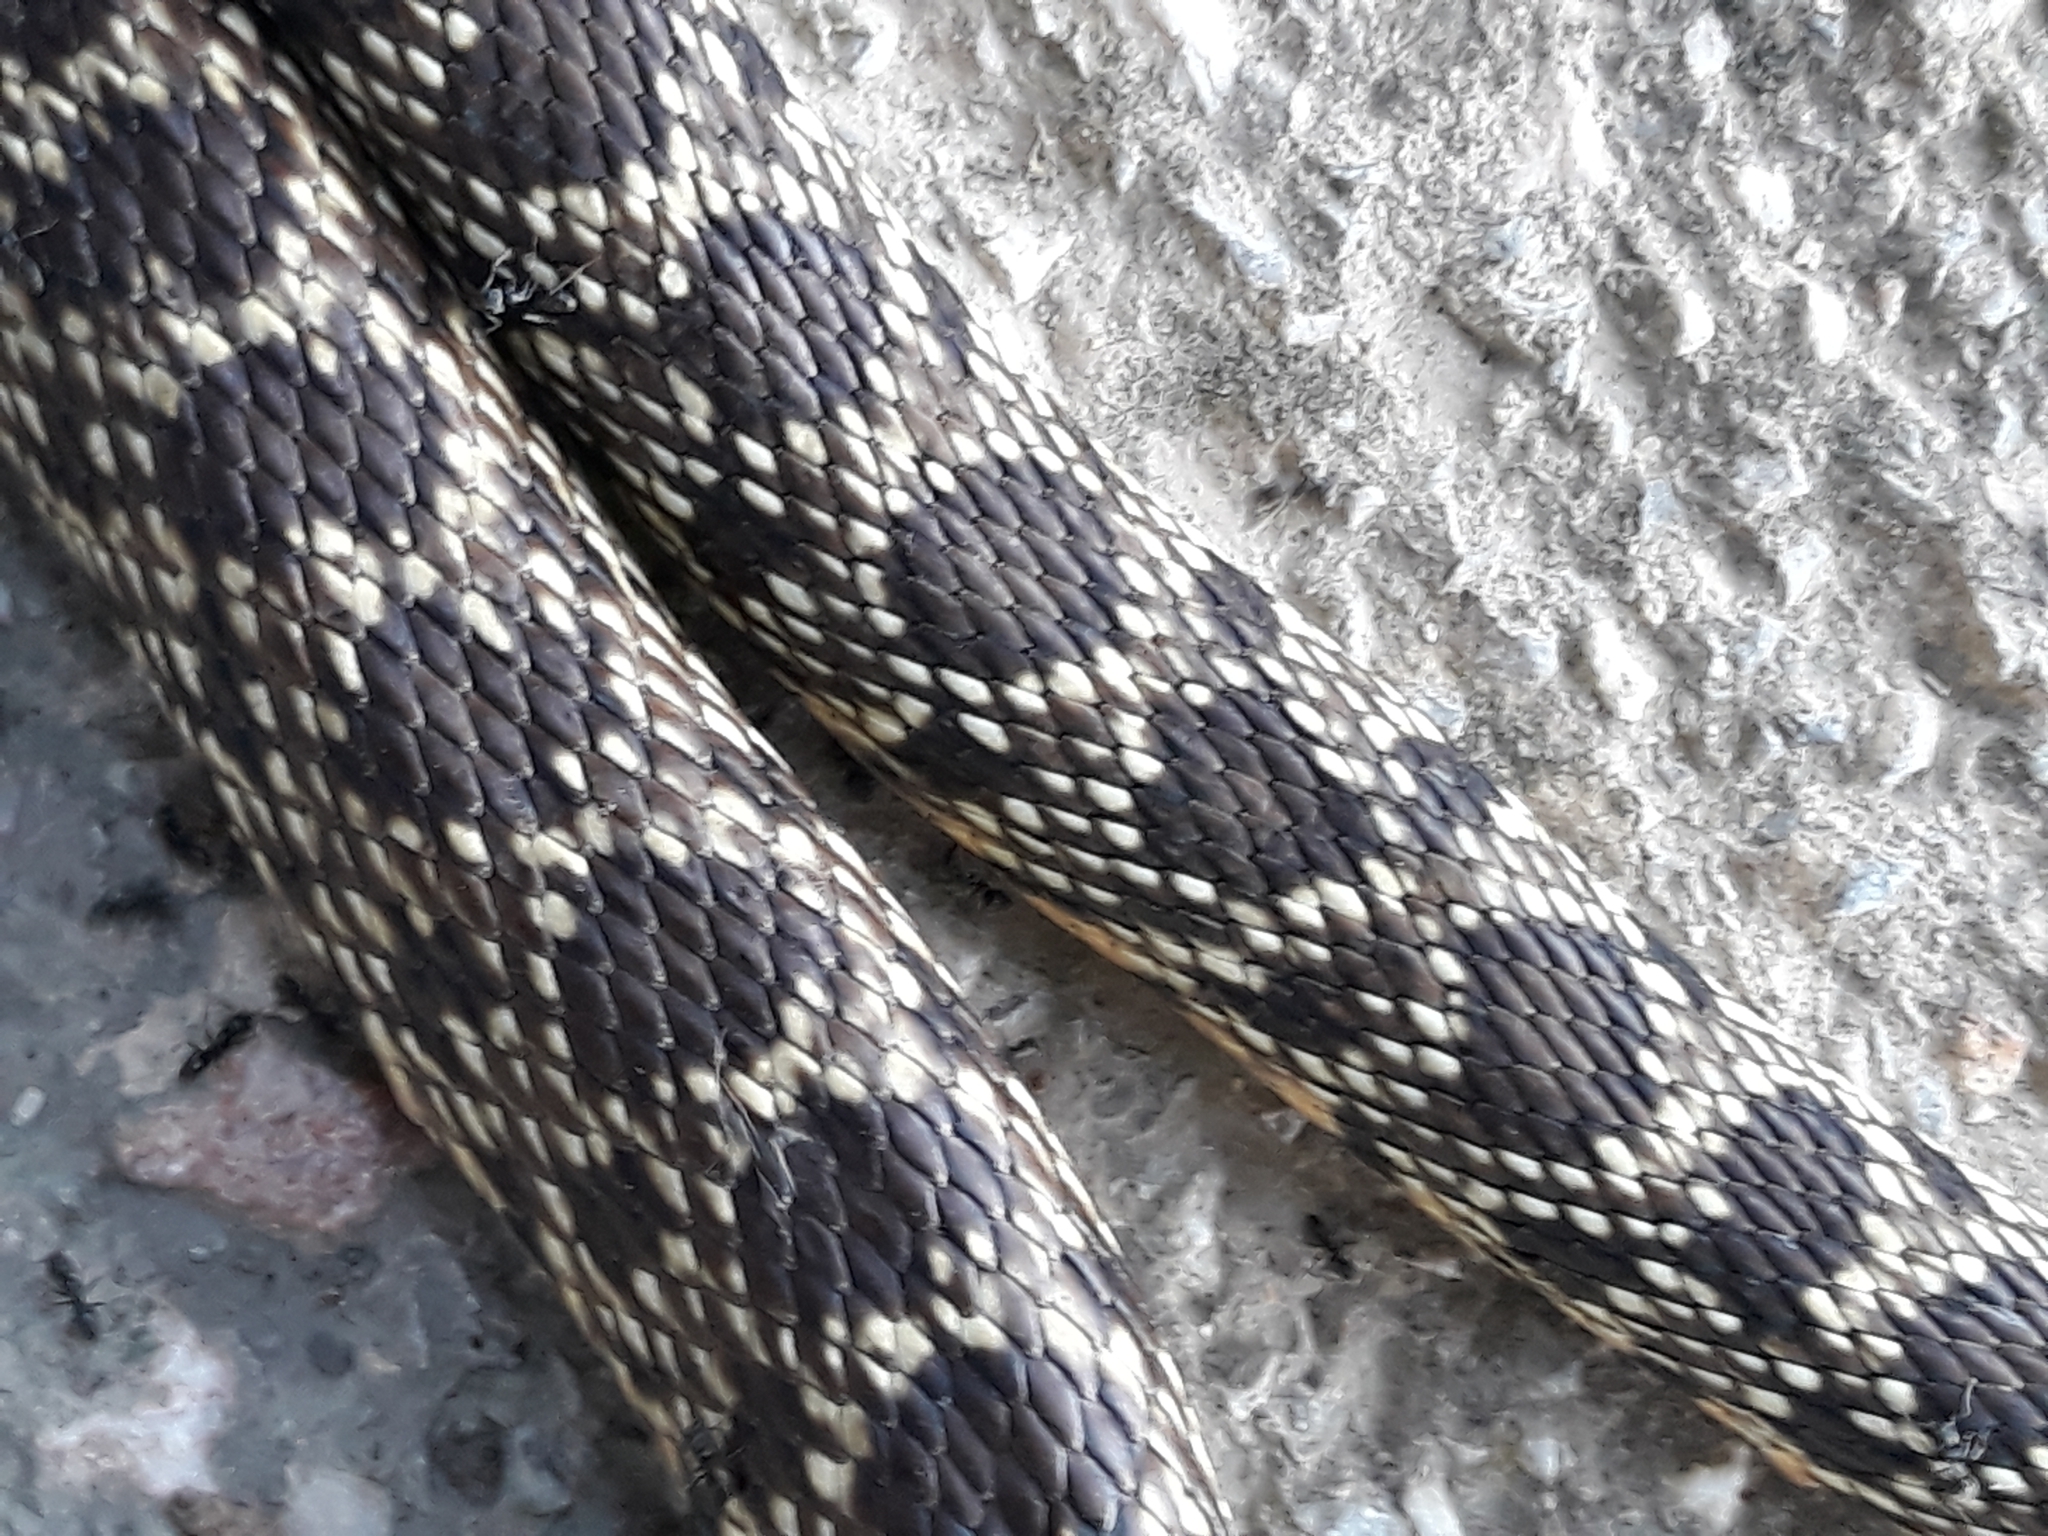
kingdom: Animalia
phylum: Chordata
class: Squamata
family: Colubridae
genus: Hemorrhois
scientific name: Hemorrhois hippocrepis
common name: Horseshoe whip snake
